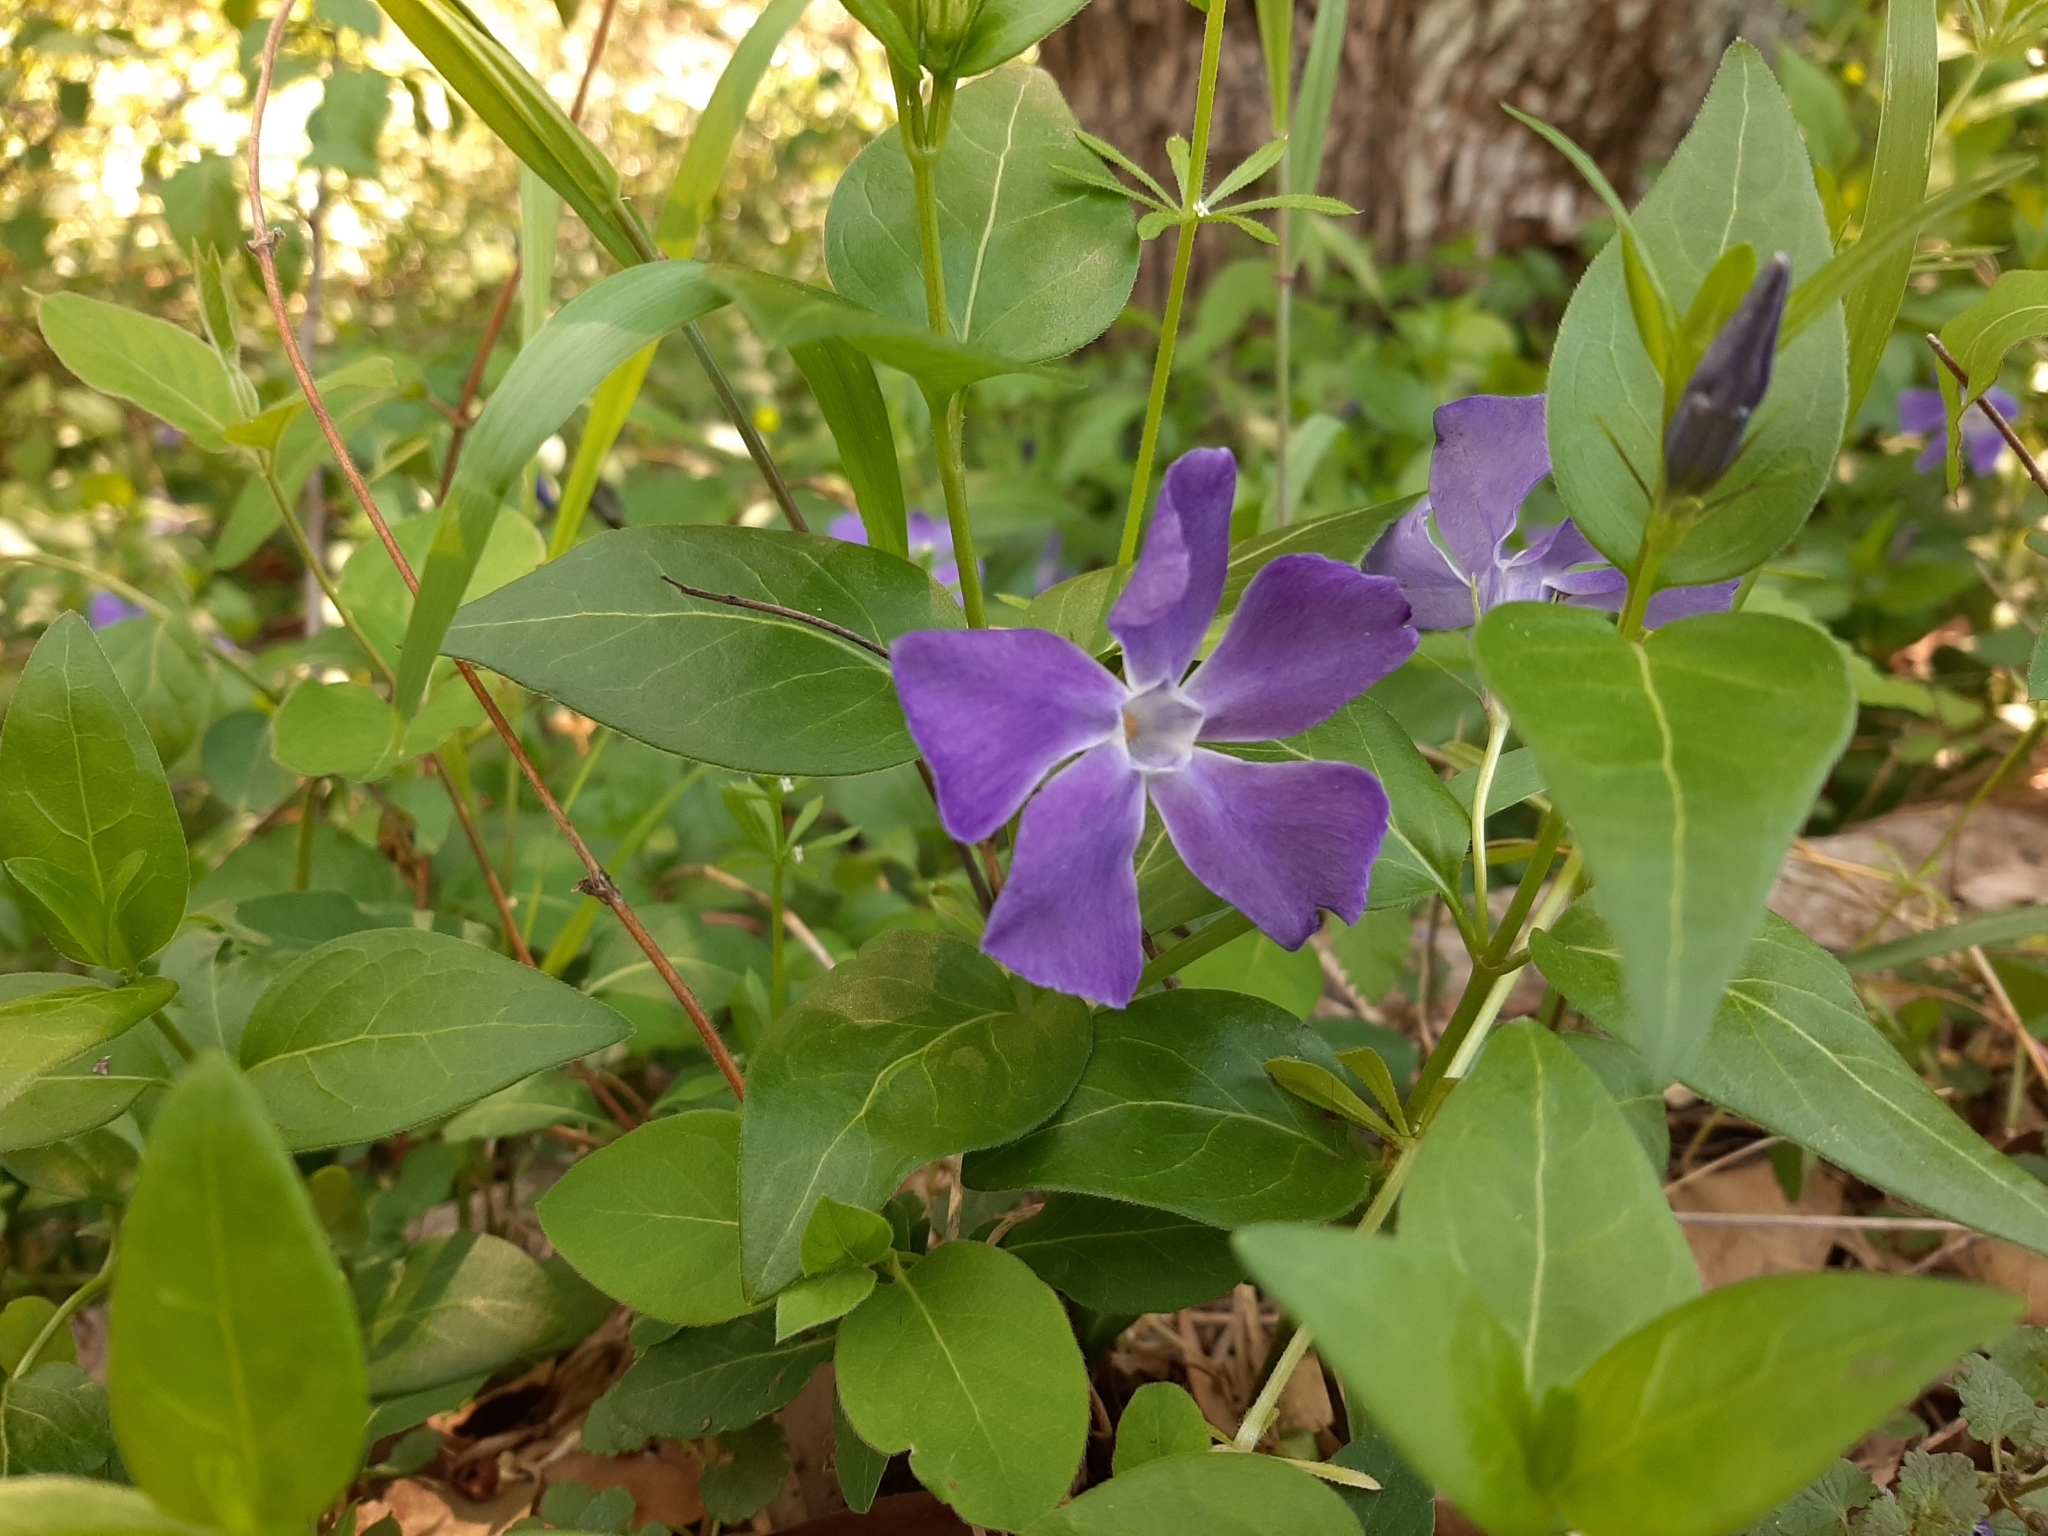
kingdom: Plantae
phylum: Tracheophyta
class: Magnoliopsida
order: Gentianales
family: Apocynaceae
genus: Vinca
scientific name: Vinca major
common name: Greater periwinkle
